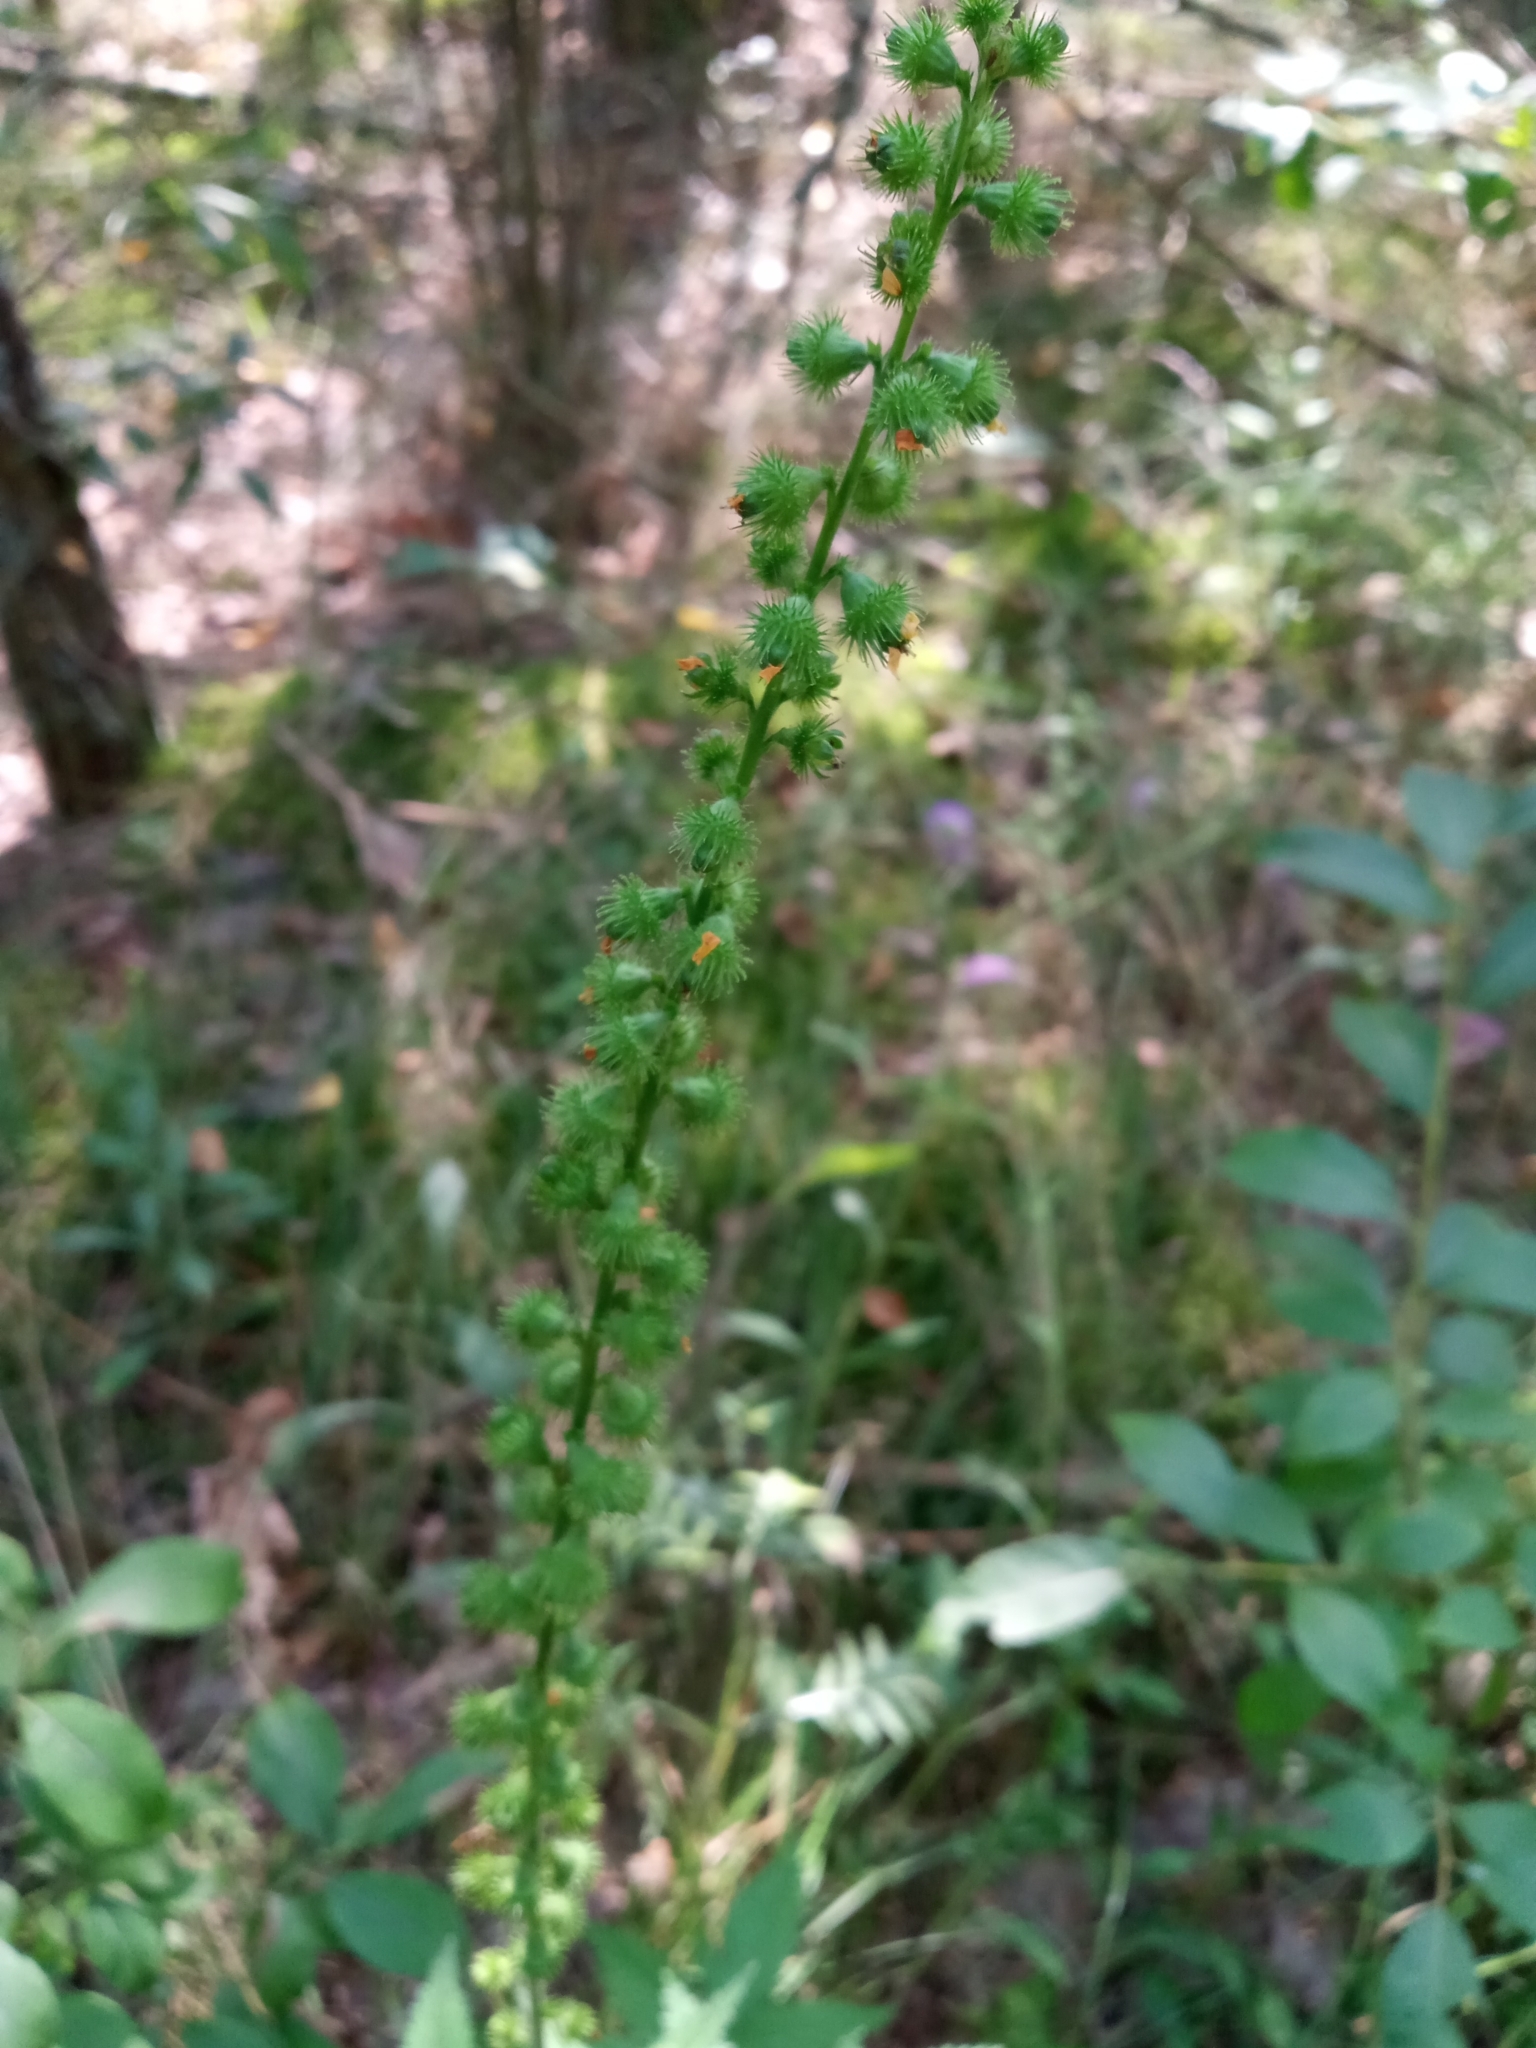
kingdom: Plantae
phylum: Tracheophyta
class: Magnoliopsida
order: Rosales
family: Rosaceae
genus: Agrimonia
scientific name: Agrimonia pilosa
